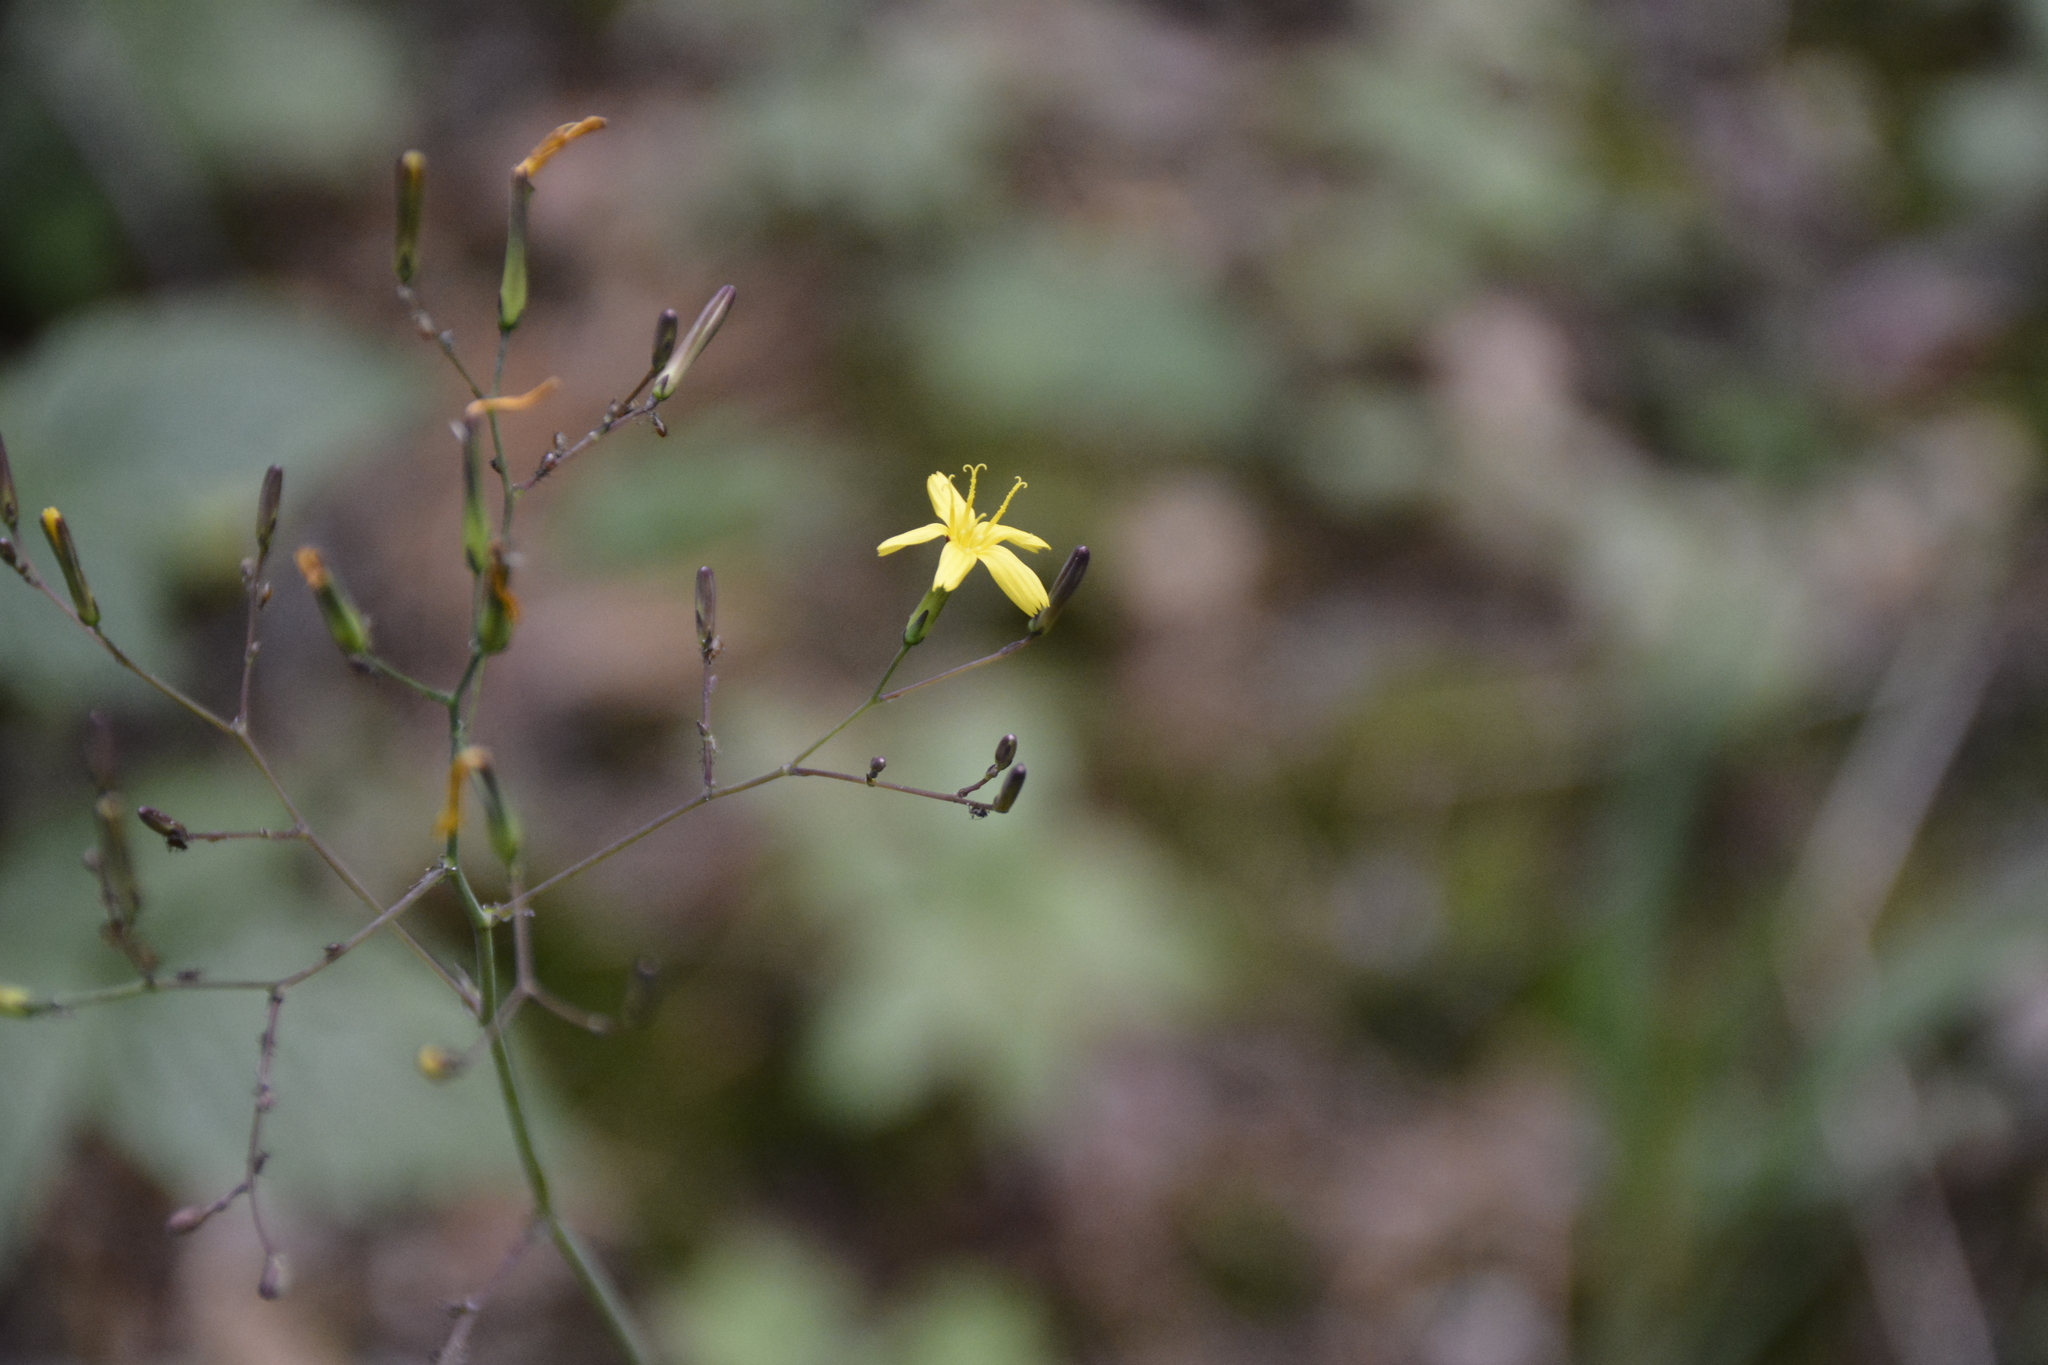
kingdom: Plantae
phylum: Tracheophyta
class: Magnoliopsida
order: Asterales
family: Asteraceae
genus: Mycelis
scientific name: Mycelis muralis
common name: Wall lettuce
